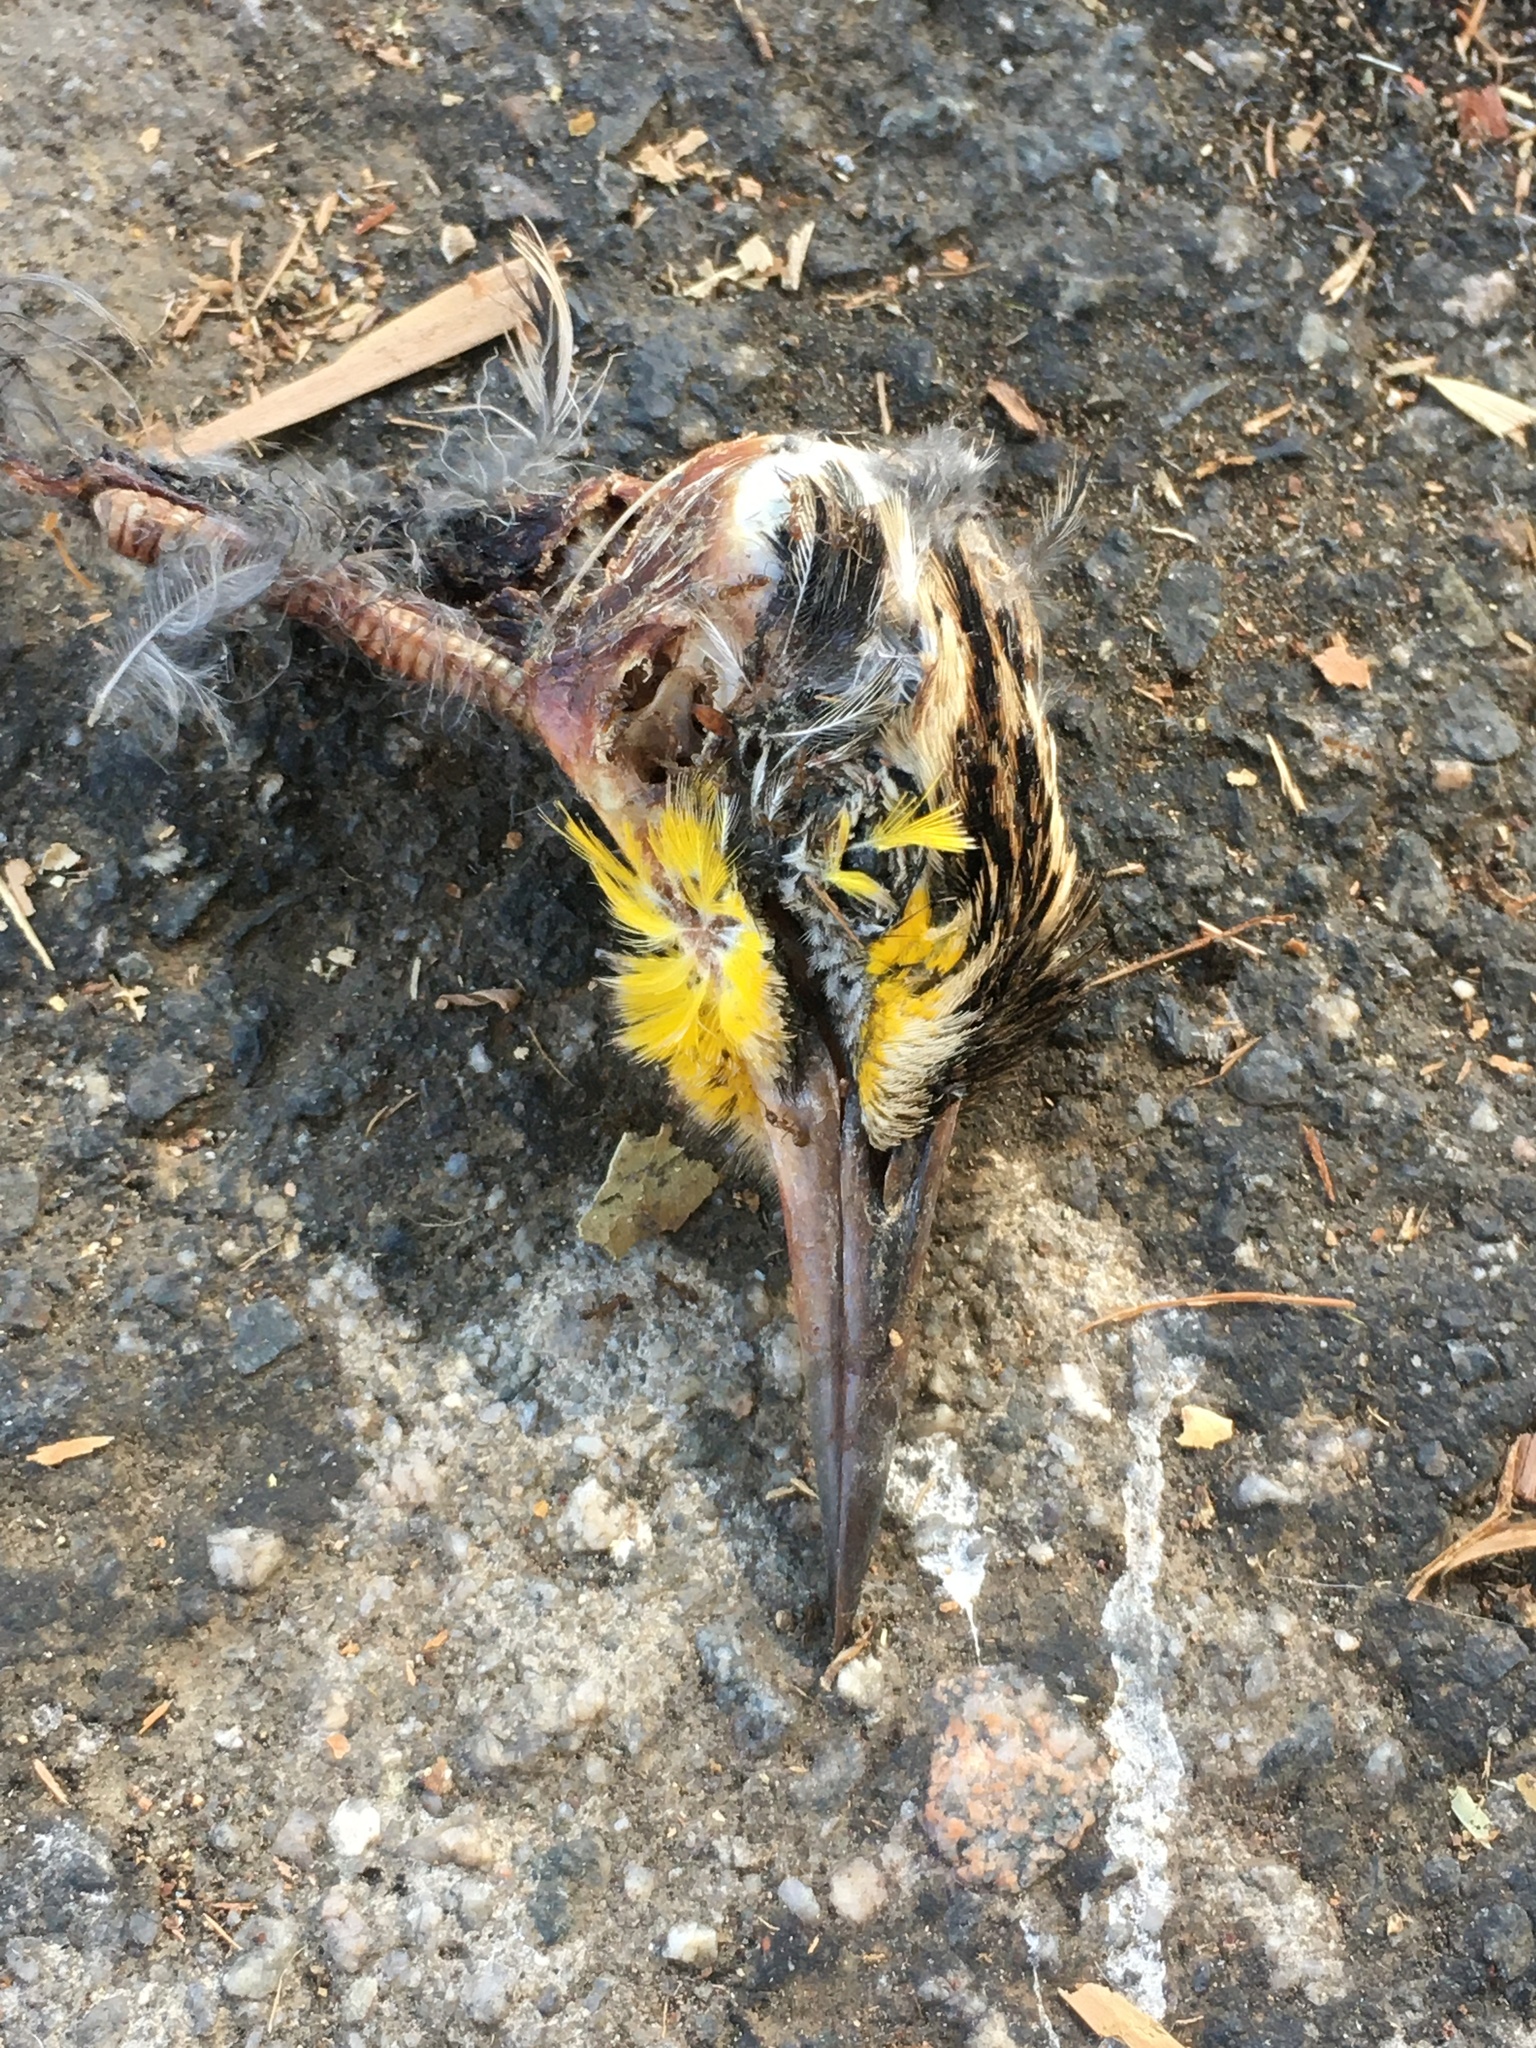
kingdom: Animalia
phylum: Chordata
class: Aves
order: Passeriformes
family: Icteridae
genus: Sturnella
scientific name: Sturnella neglecta
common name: Western meadowlark
